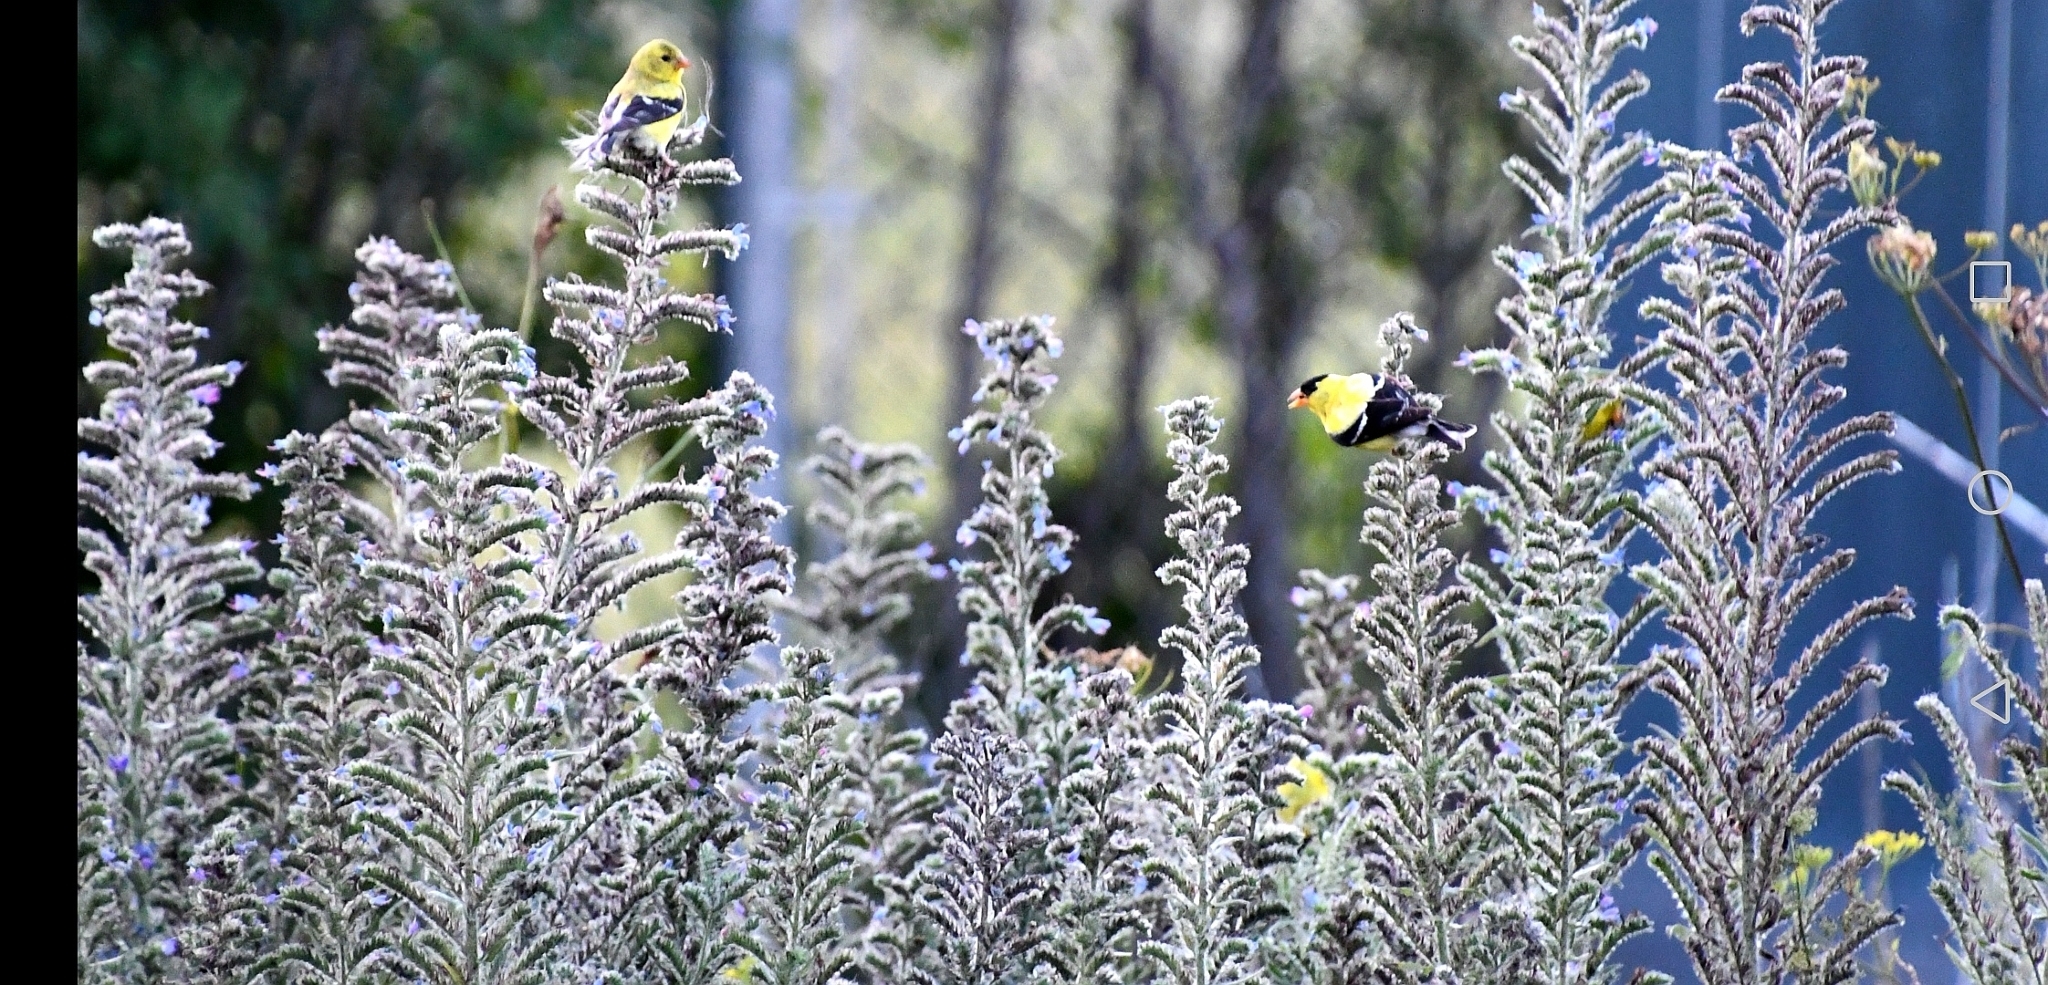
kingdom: Animalia
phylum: Chordata
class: Aves
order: Passeriformes
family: Fringillidae
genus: Spinus
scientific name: Spinus tristis
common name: American goldfinch
